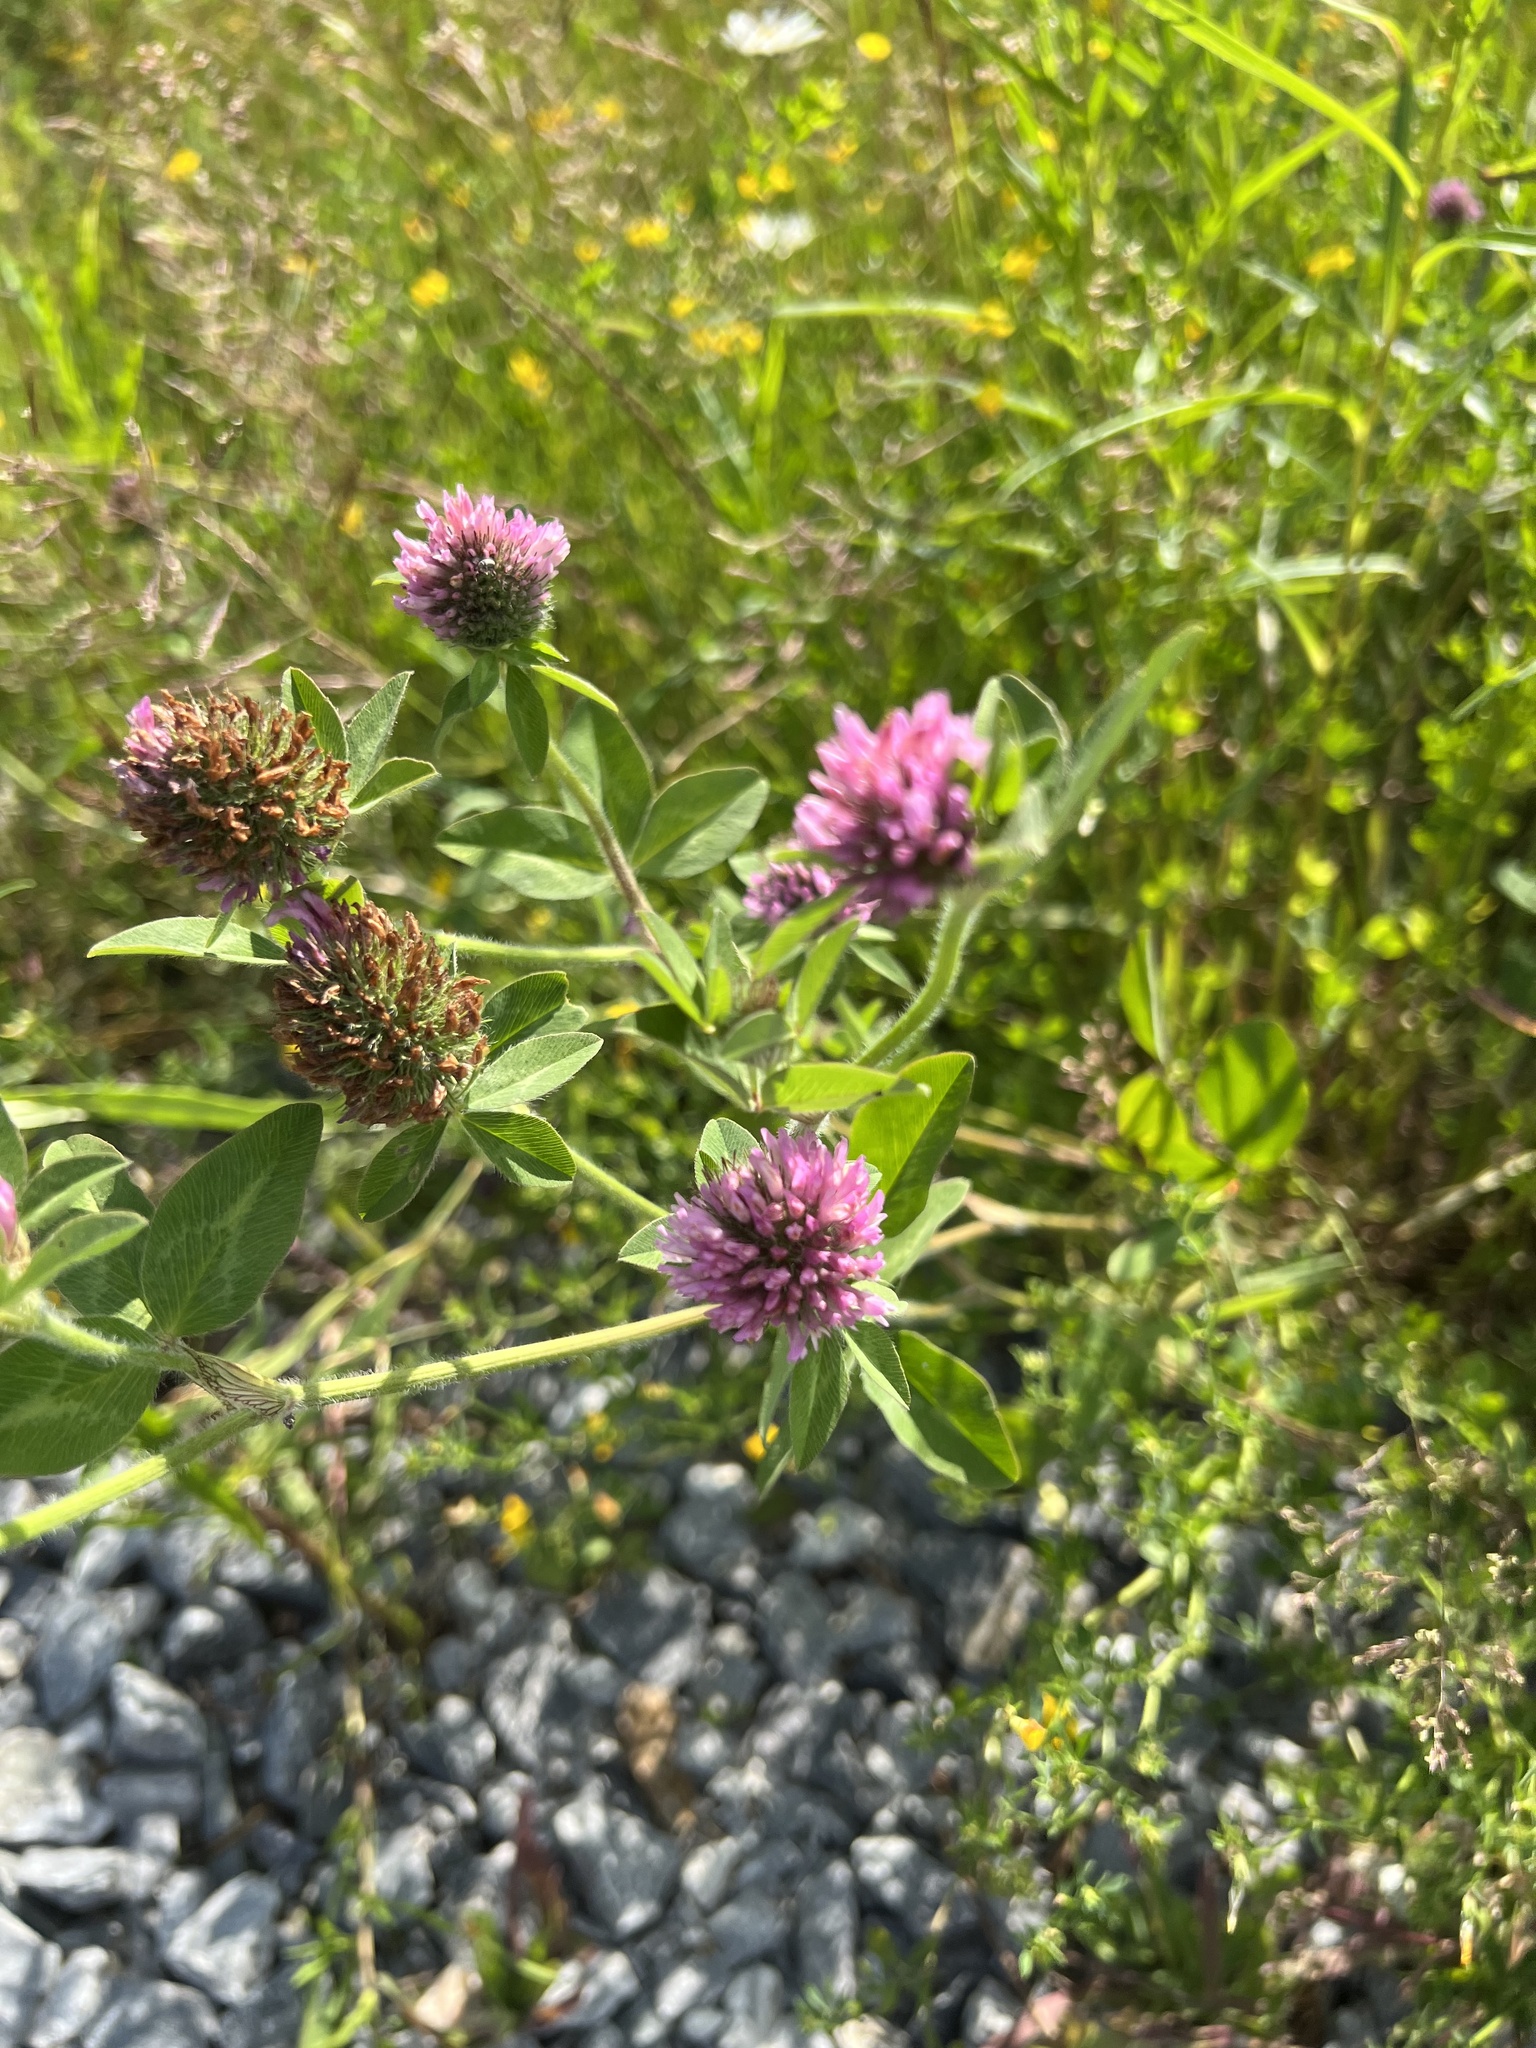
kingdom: Plantae
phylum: Tracheophyta
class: Magnoliopsida
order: Fabales
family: Fabaceae
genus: Trifolium
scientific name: Trifolium pratense
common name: Red clover
